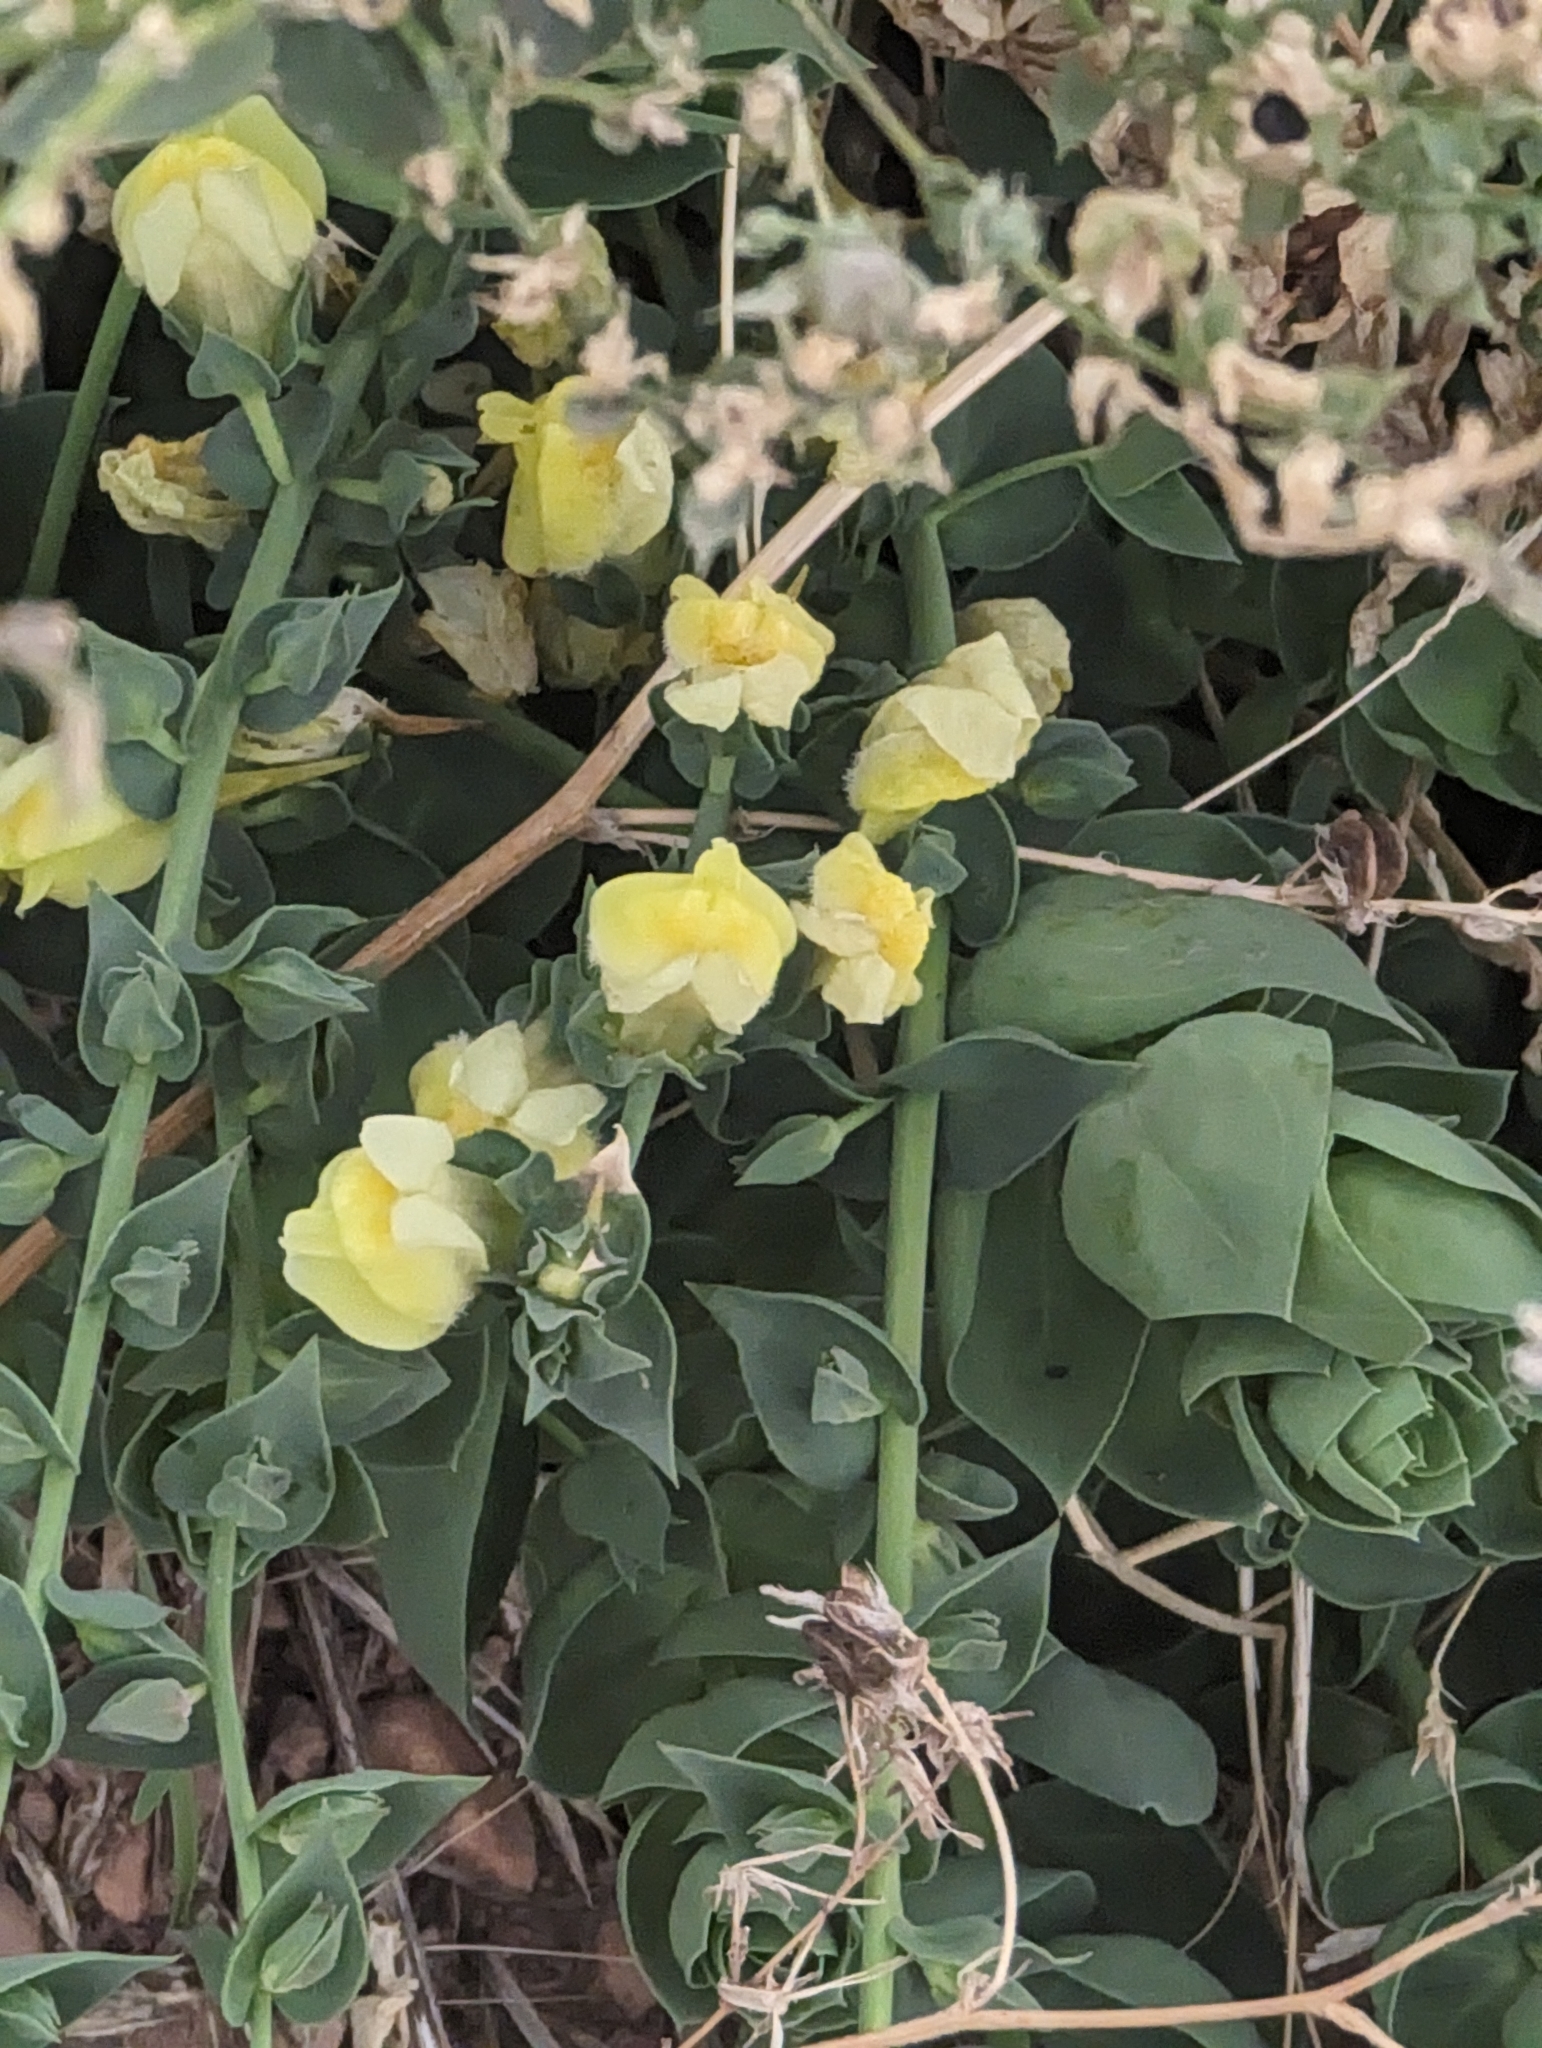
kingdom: Plantae
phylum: Tracheophyta
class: Magnoliopsida
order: Lamiales
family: Plantaginaceae
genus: Linaria
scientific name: Linaria dalmatica
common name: Dalmatian toadflax
